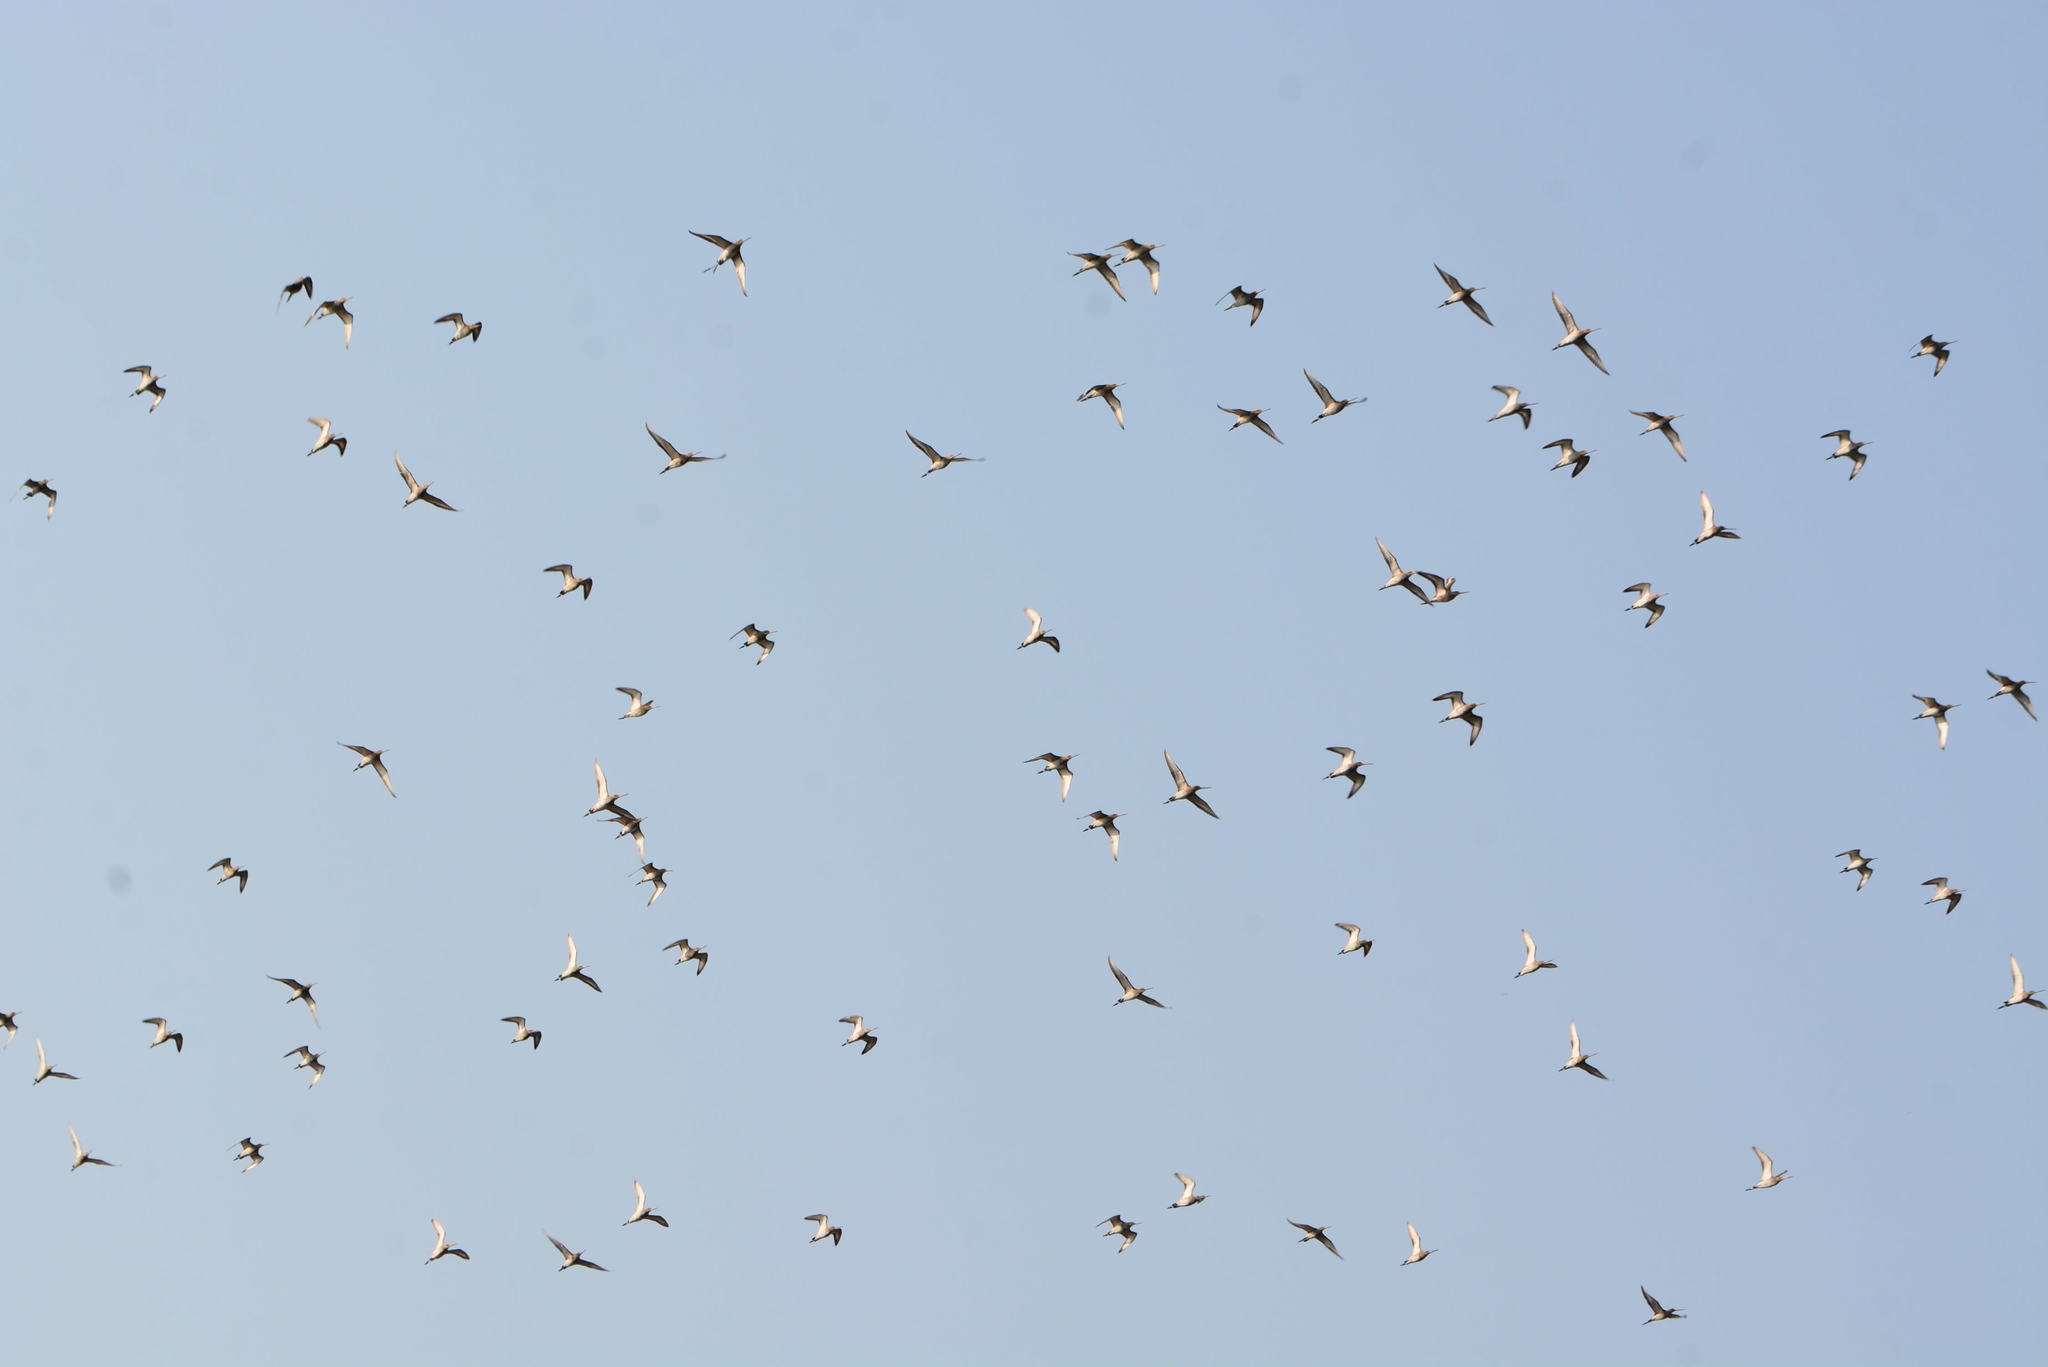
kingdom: Animalia
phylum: Chordata
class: Aves
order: Charadriiformes
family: Scolopacidae
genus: Limosa
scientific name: Limosa limosa
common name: Black-tailed godwit
